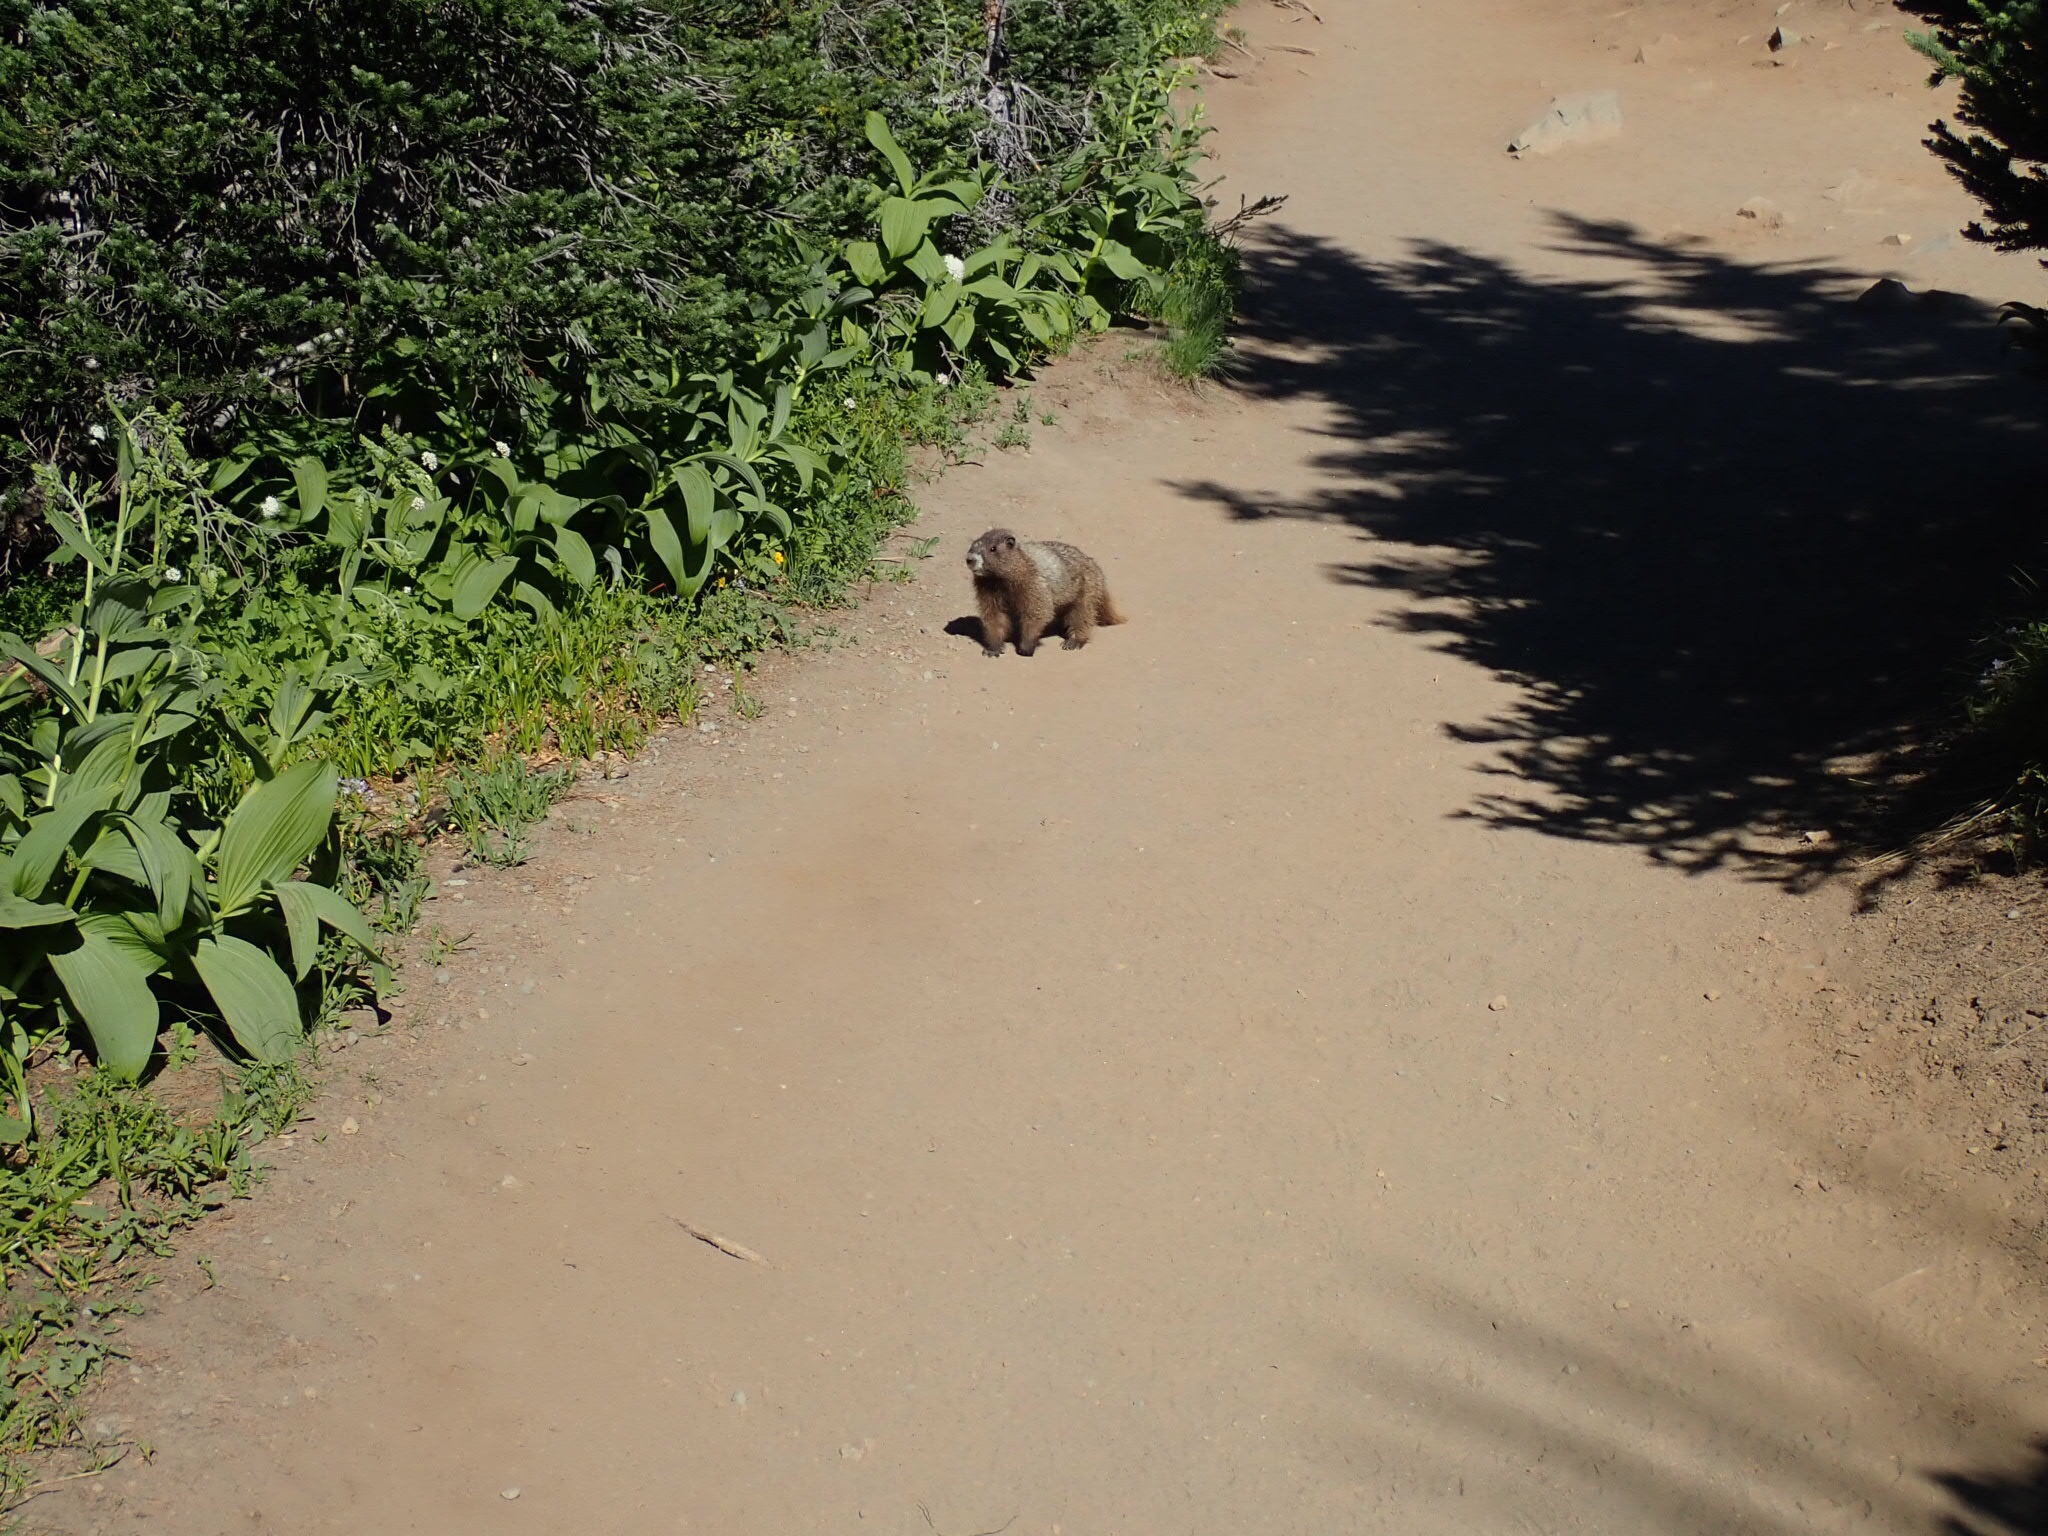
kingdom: Animalia
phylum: Chordata
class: Mammalia
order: Rodentia
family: Sciuridae
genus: Marmota
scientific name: Marmota caligata
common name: Hoary marmot
